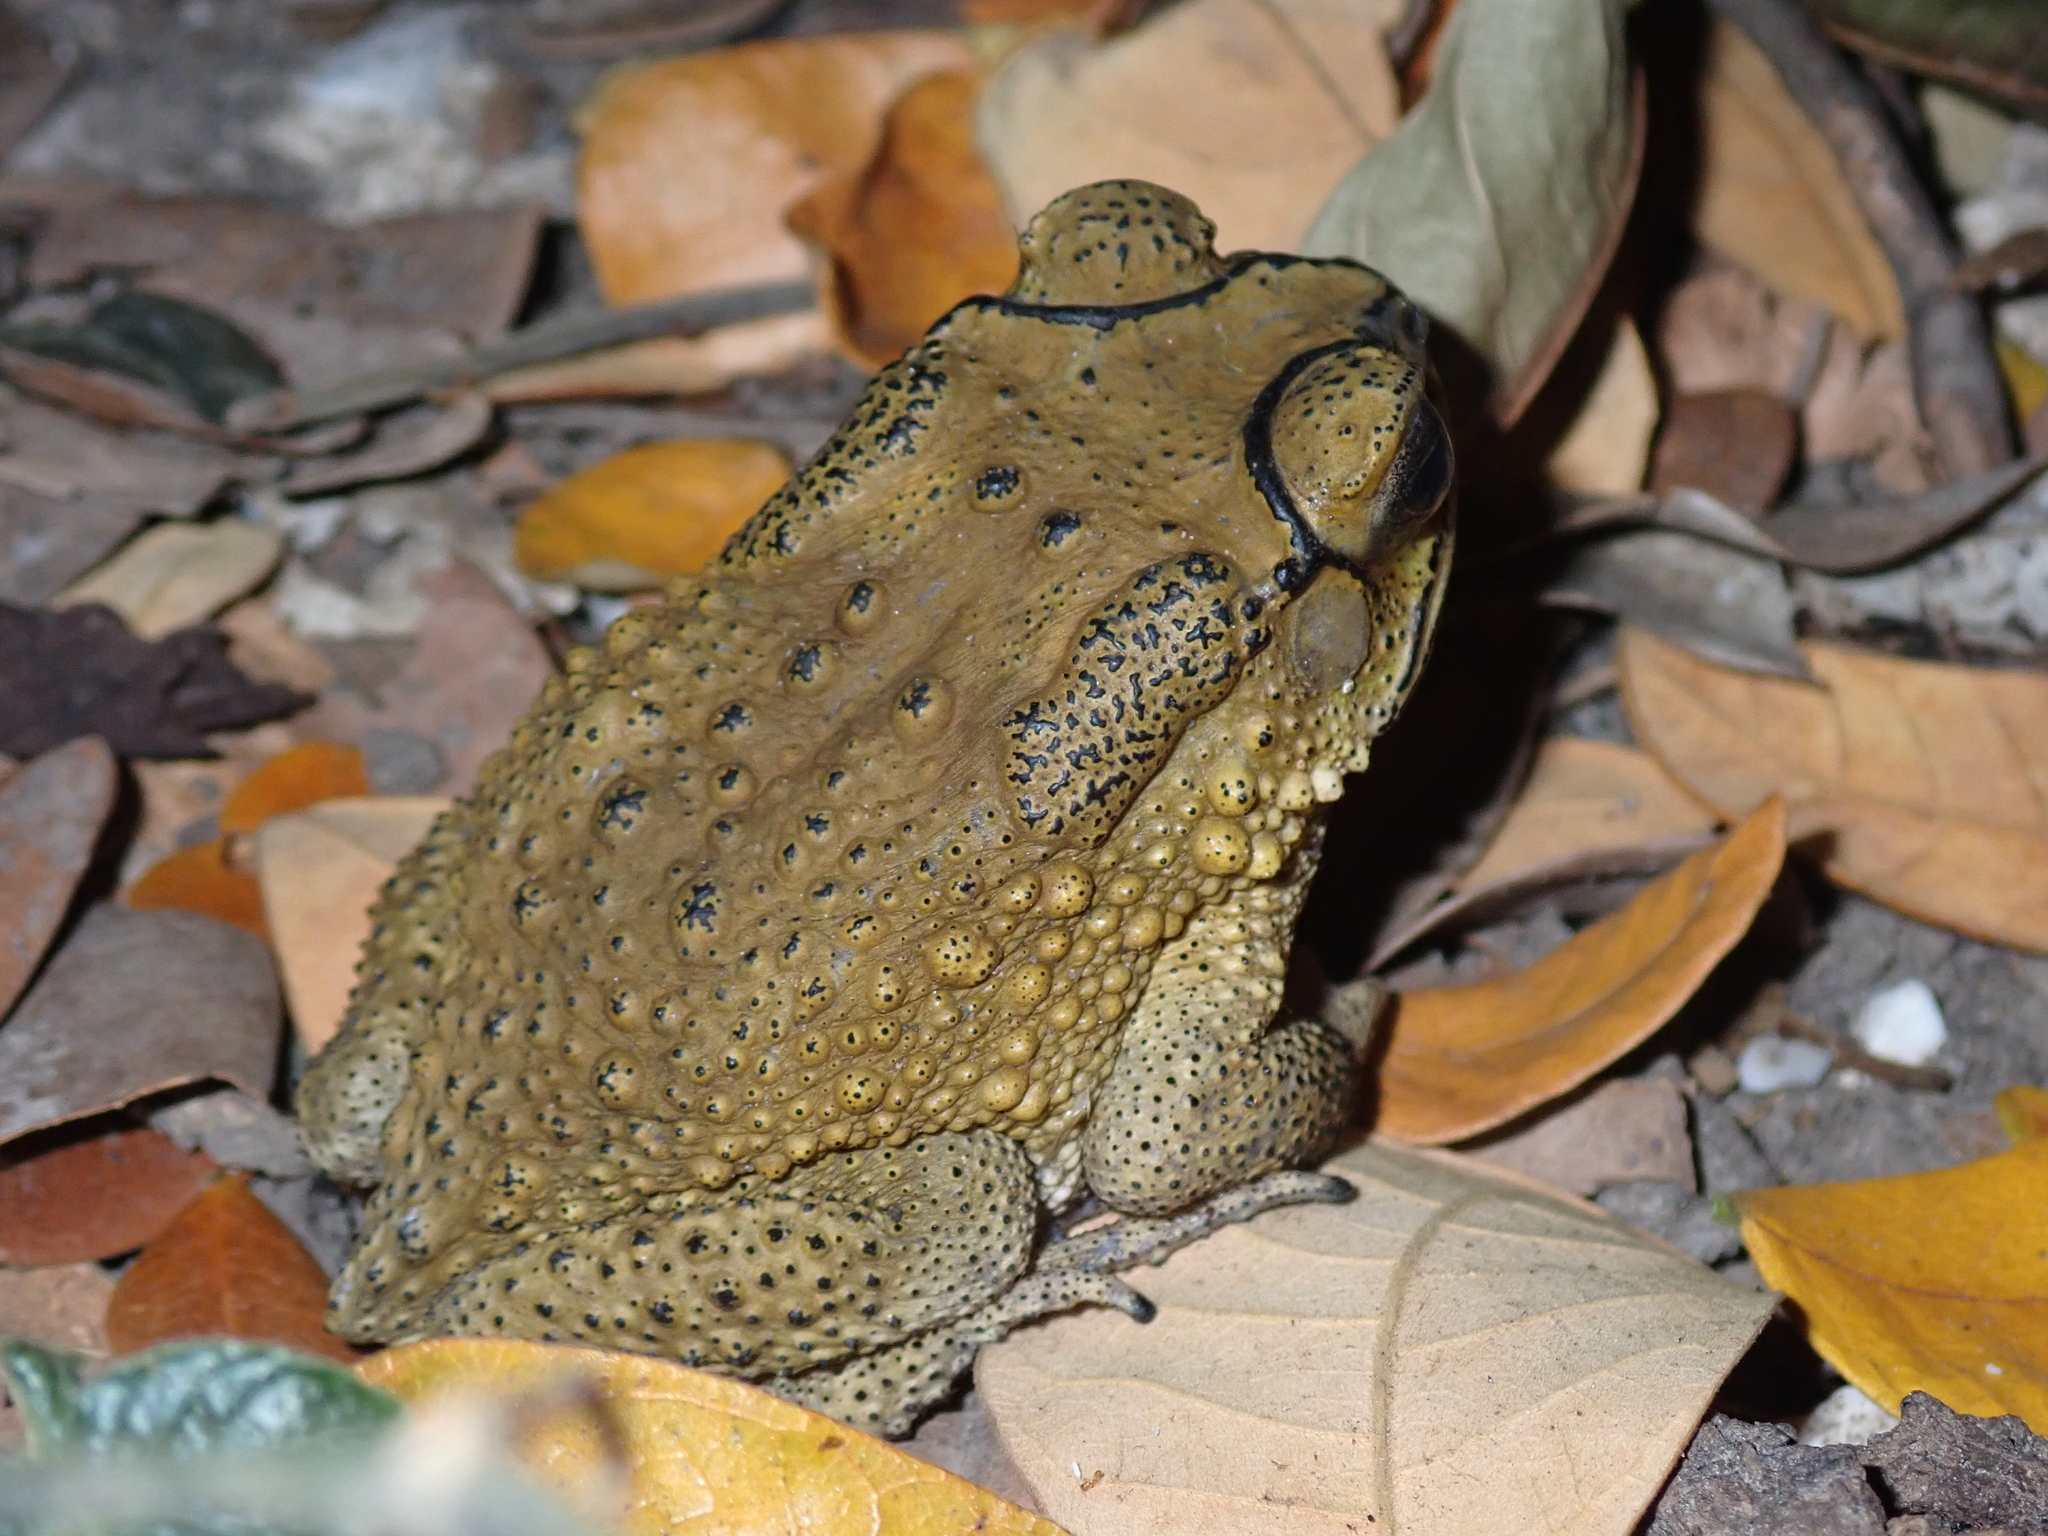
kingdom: Animalia
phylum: Chordata
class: Amphibia
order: Anura
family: Bufonidae
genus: Duttaphrynus
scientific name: Duttaphrynus melanostictus
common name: Common sunda toad
